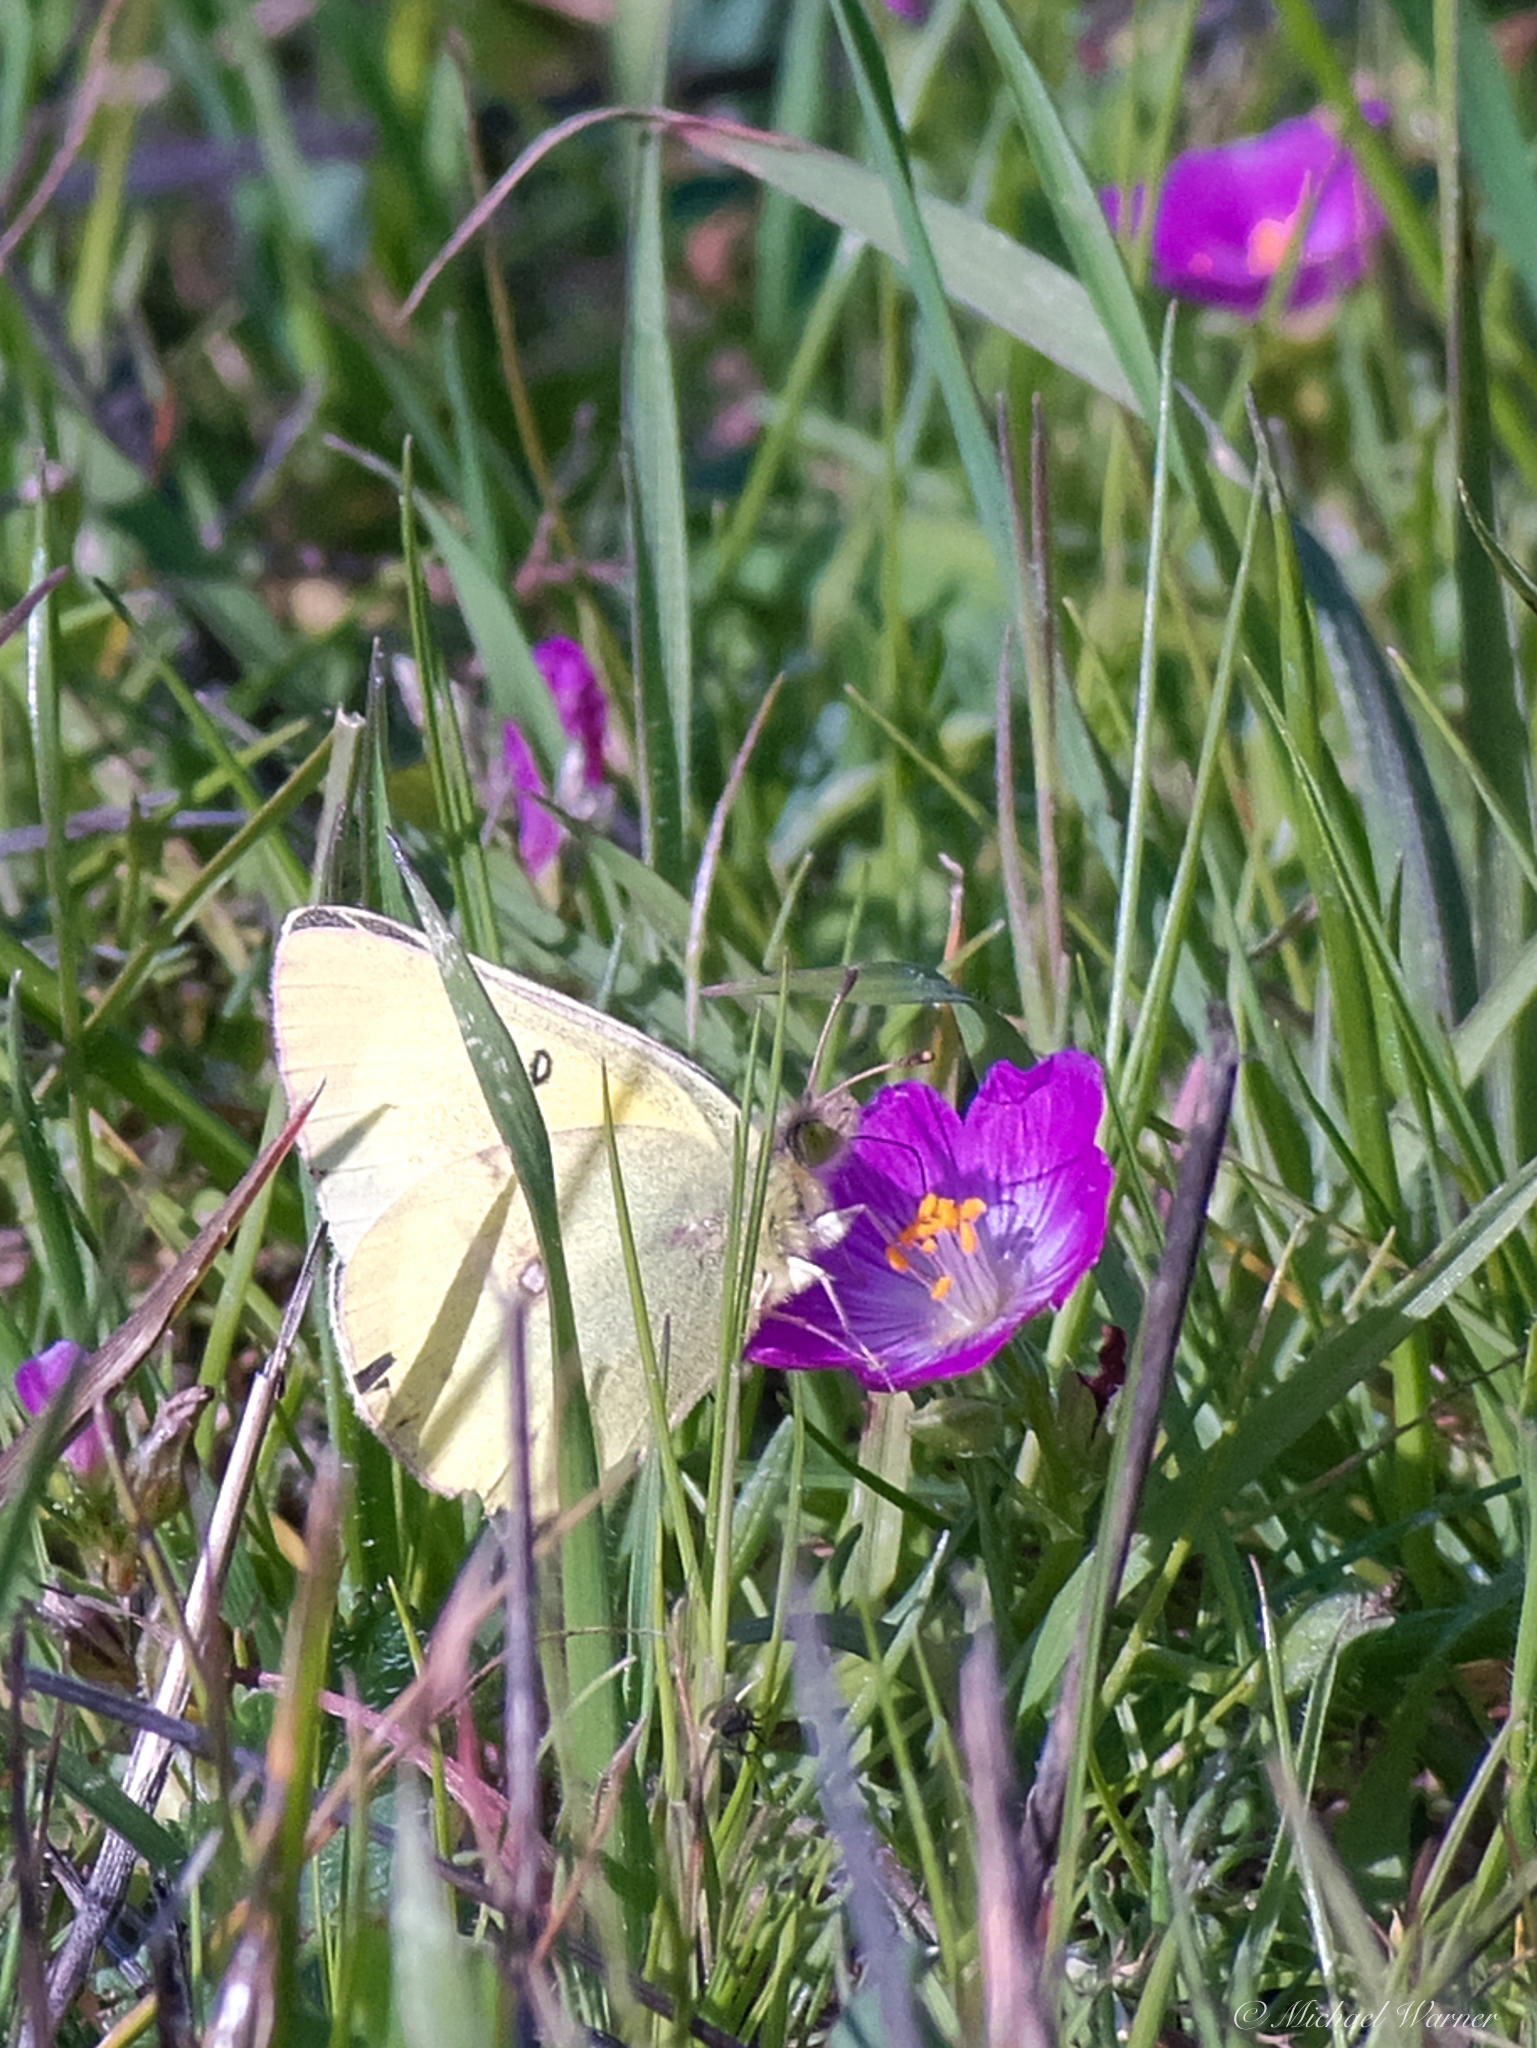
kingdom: Animalia
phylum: Arthropoda
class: Insecta
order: Lepidoptera
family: Pieridae
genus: Colias
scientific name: Colias eurytheme
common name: Alfalfa butterfly
